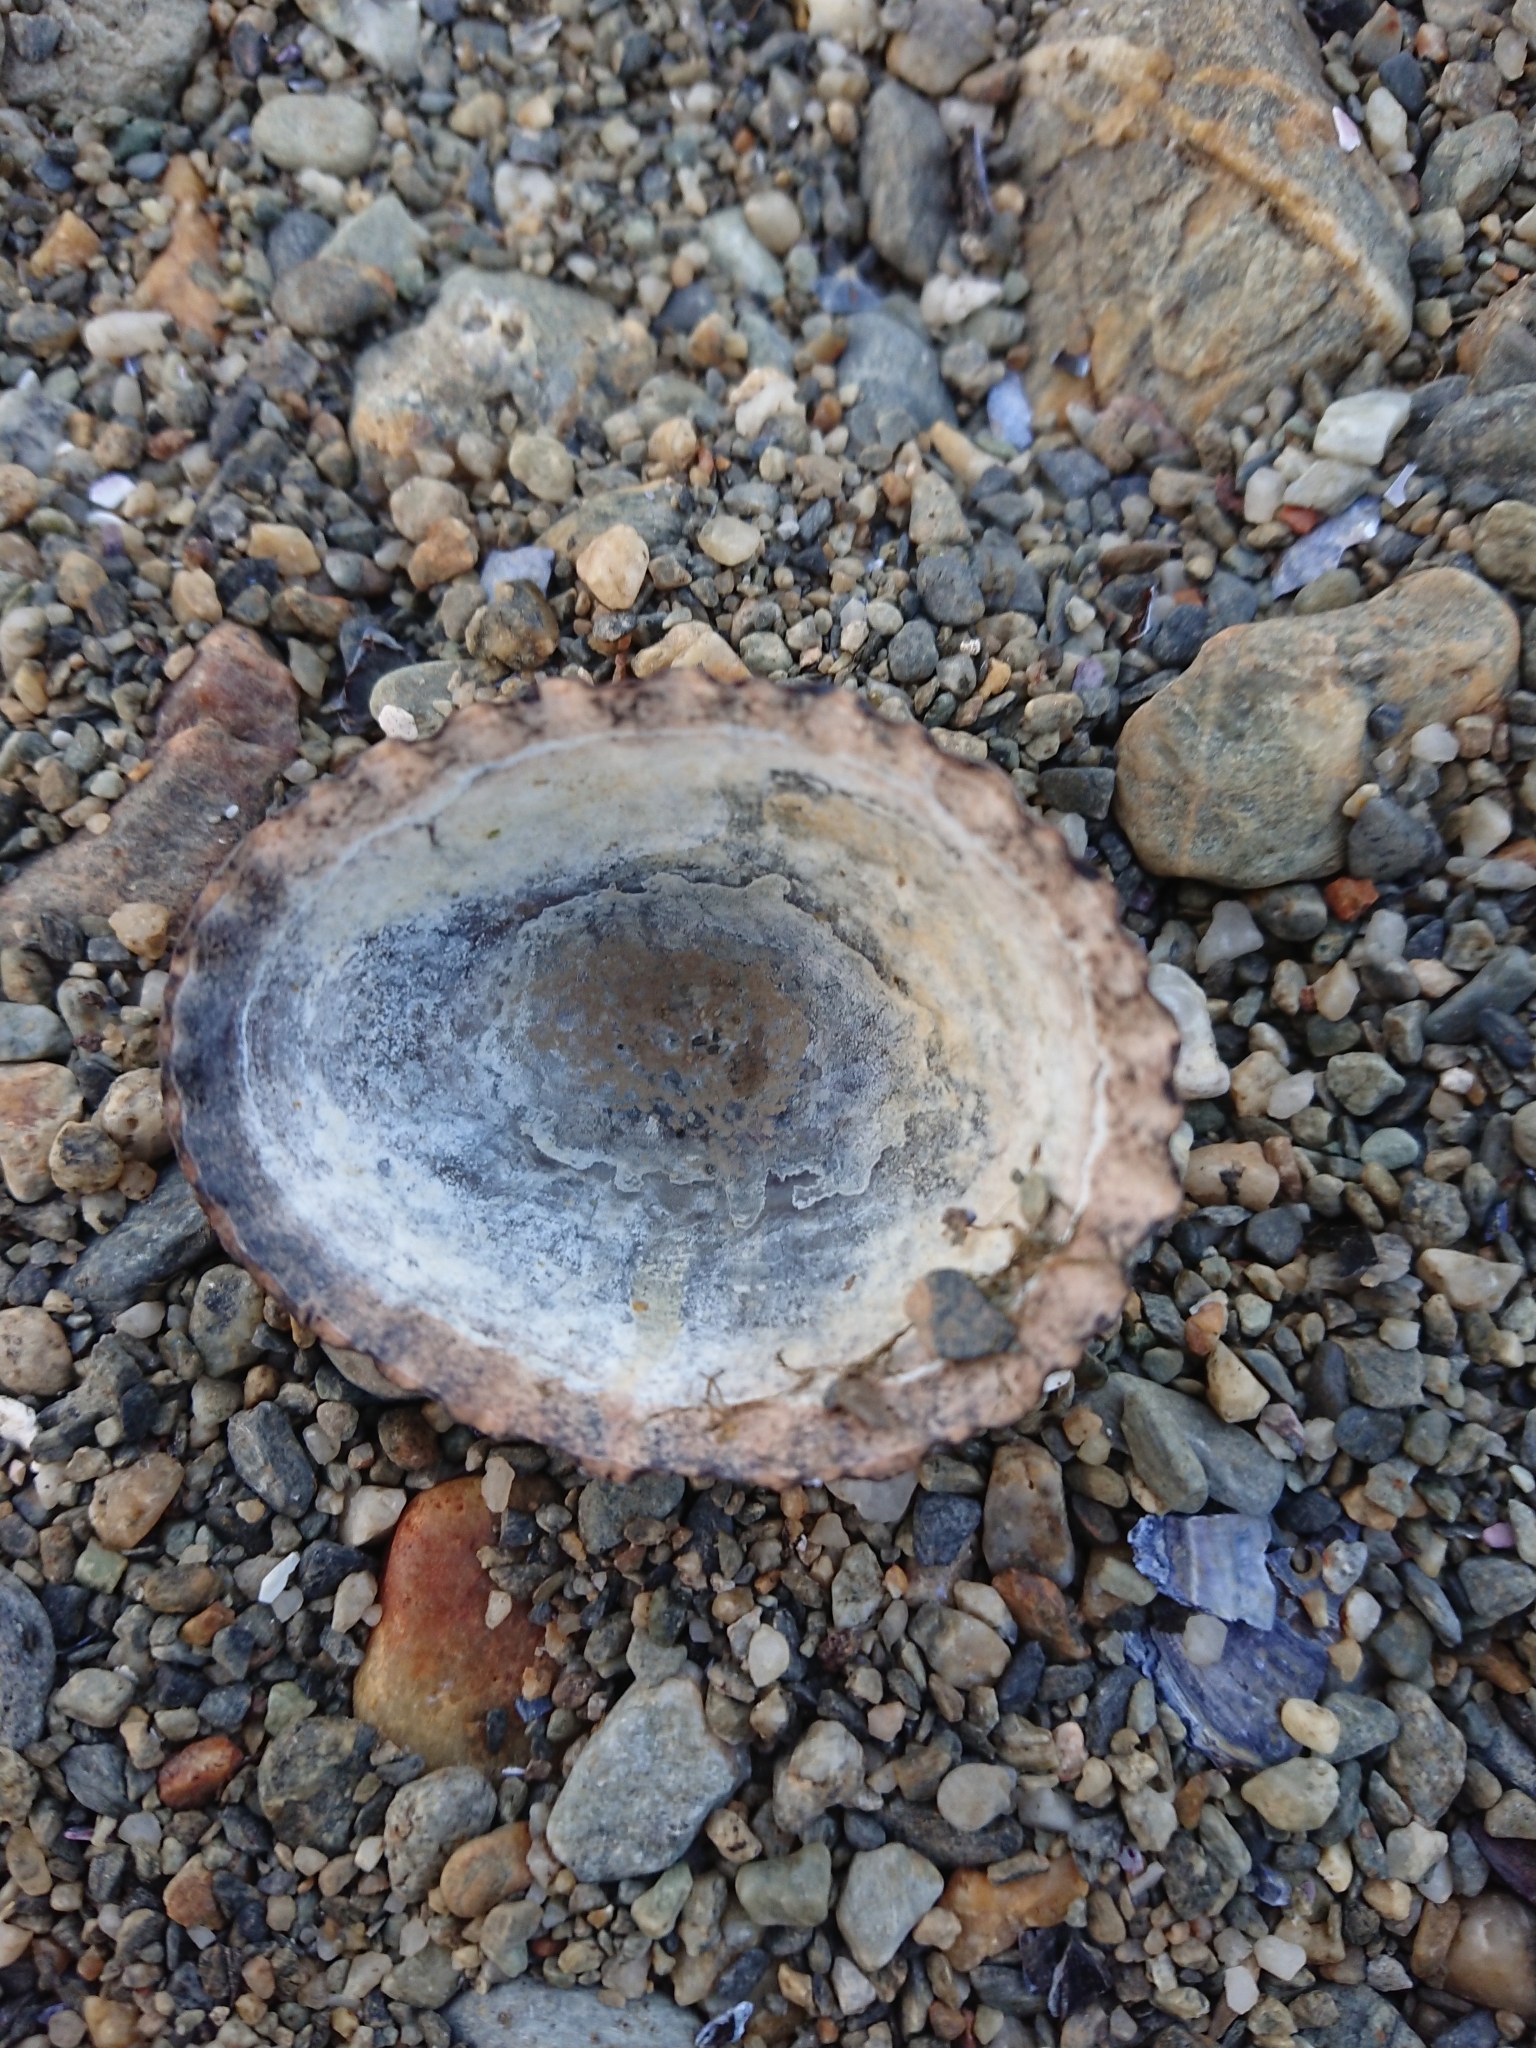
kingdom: Animalia
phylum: Mollusca
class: Gastropoda
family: Nacellidae
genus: Nacella
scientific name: Nacella magellanica
